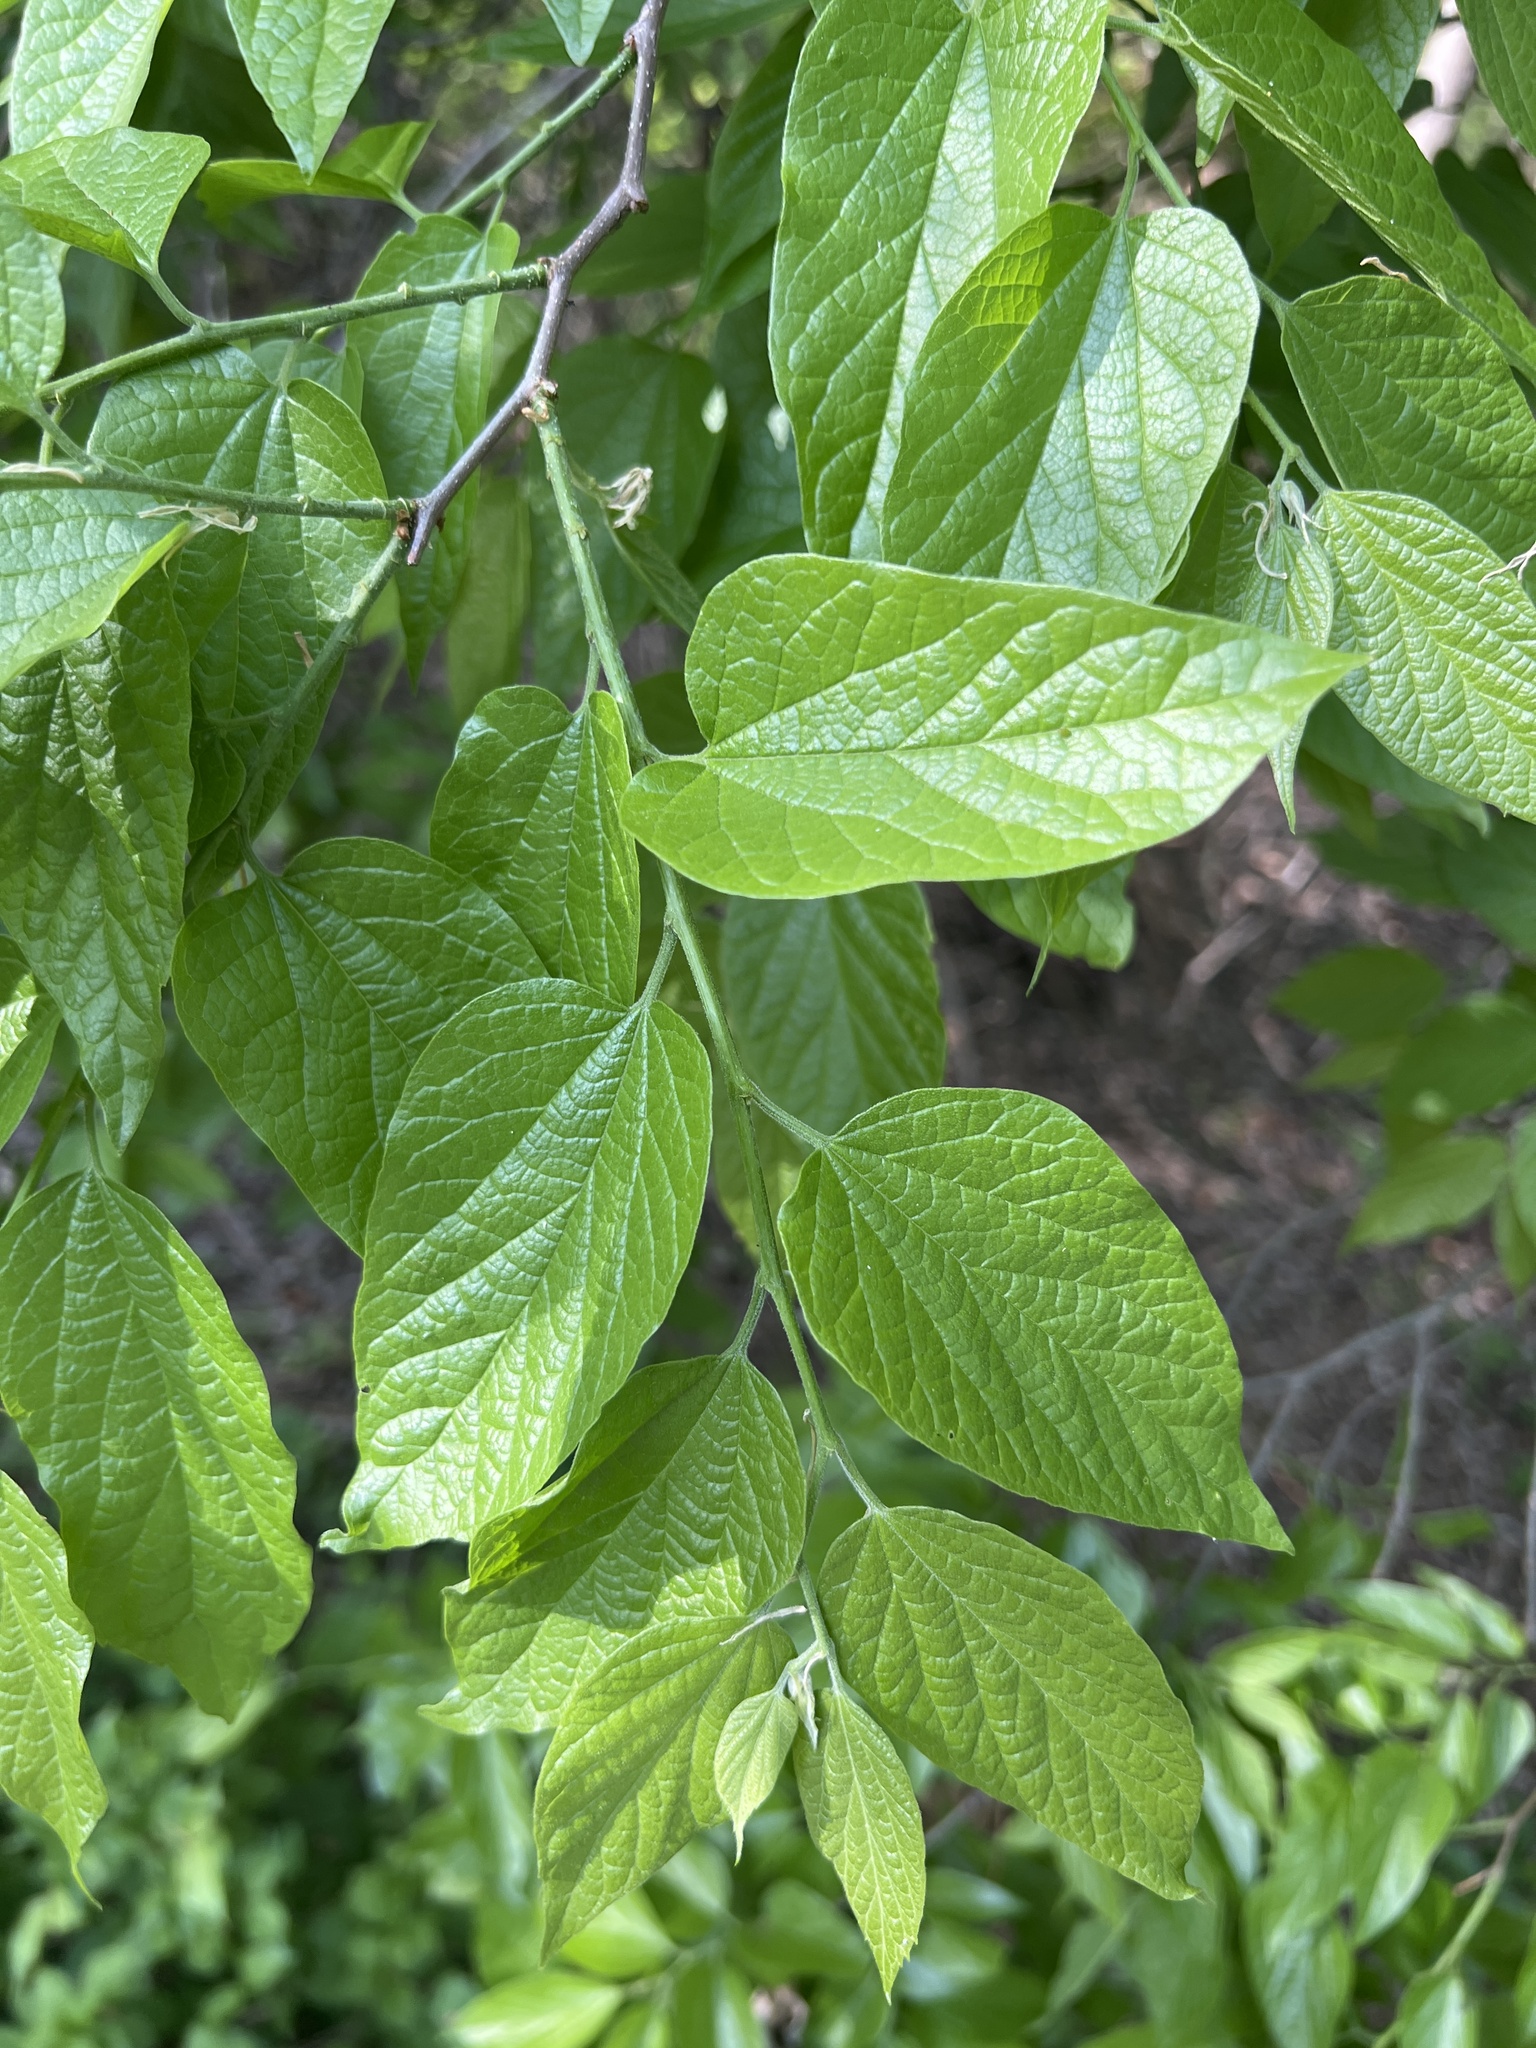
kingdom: Plantae
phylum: Tracheophyta
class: Magnoliopsida
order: Rosales
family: Cannabaceae
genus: Celtis
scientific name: Celtis laevigata
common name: Sugarberry
